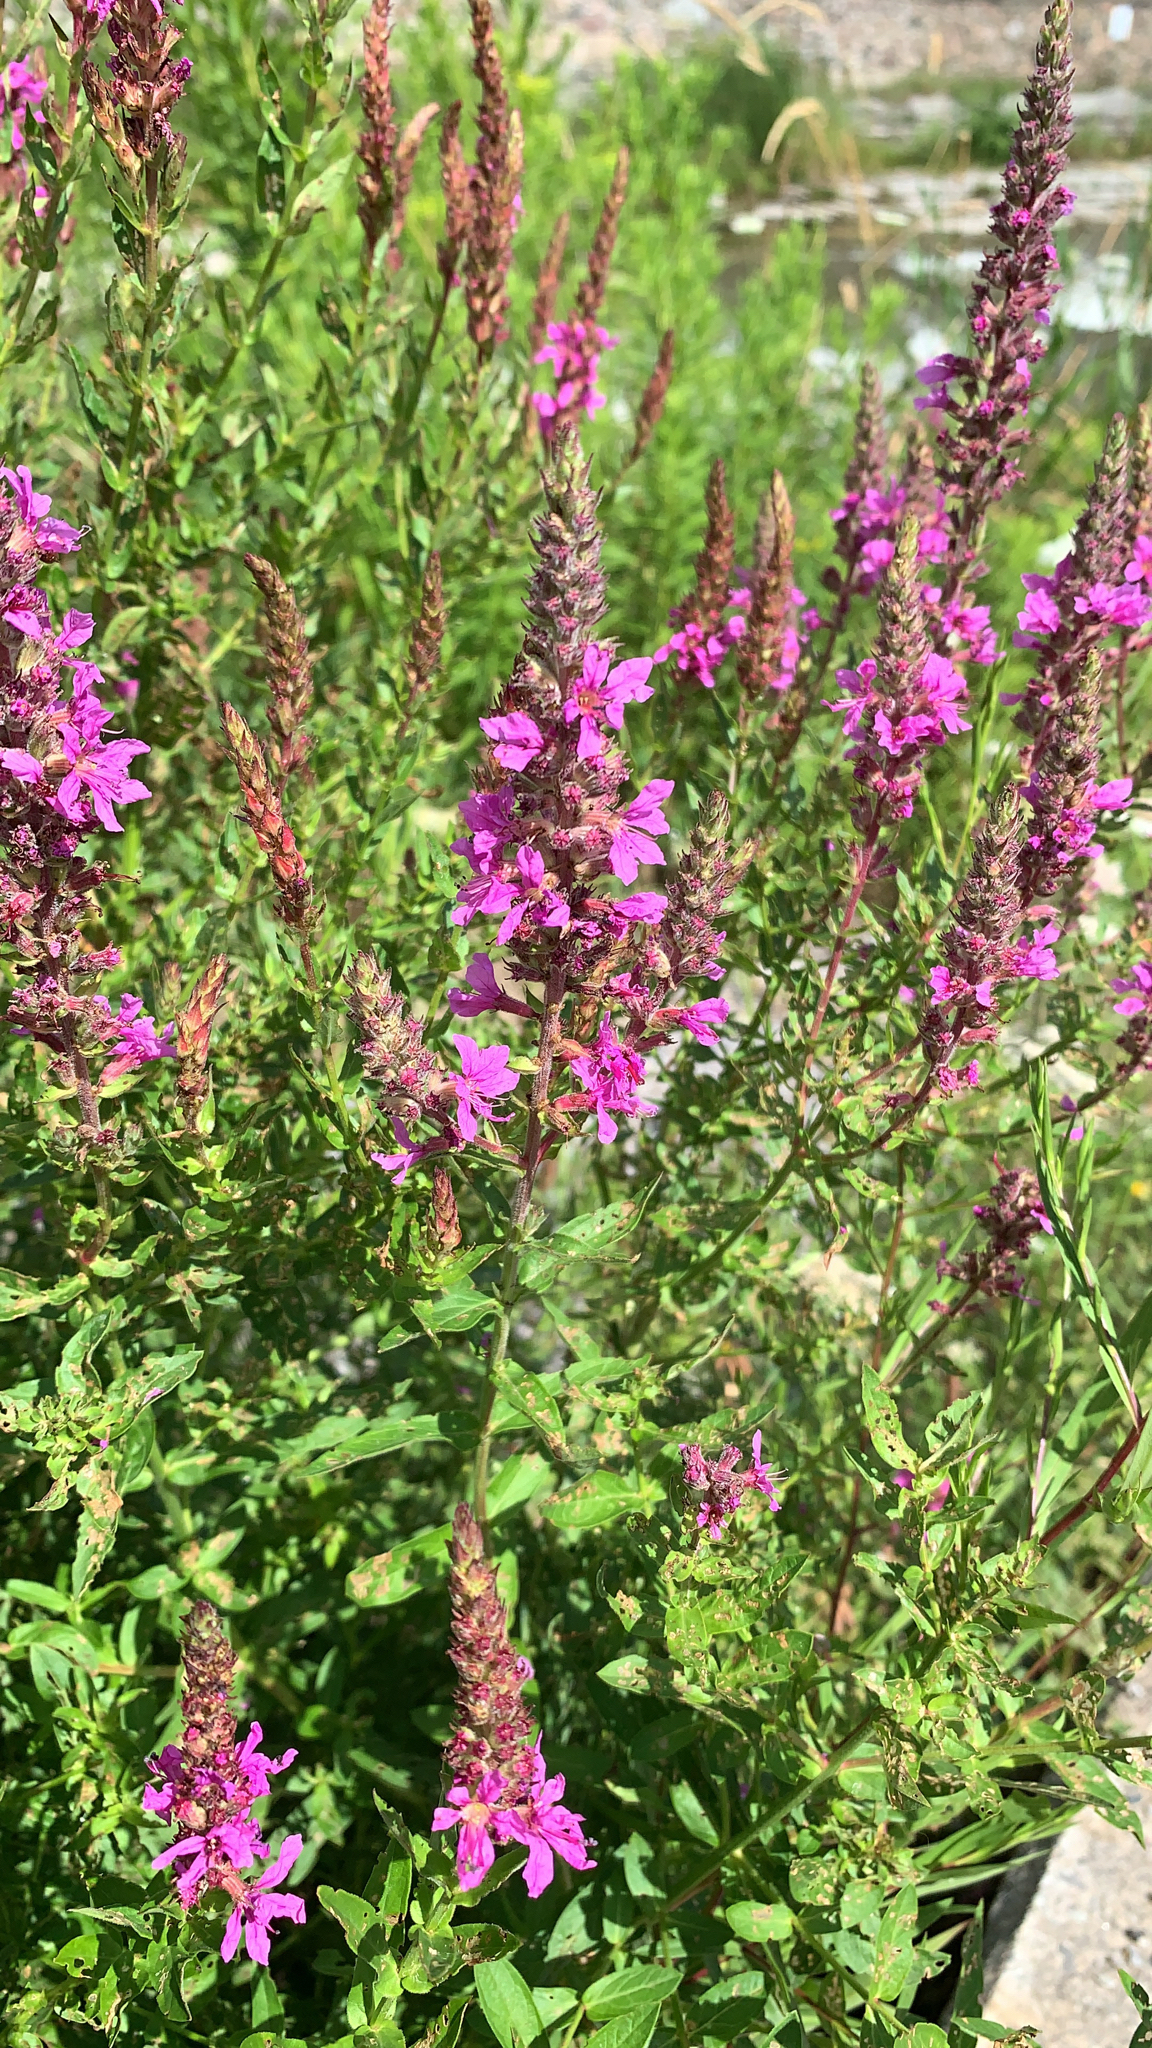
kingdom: Plantae
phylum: Tracheophyta
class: Magnoliopsida
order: Myrtales
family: Lythraceae
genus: Lythrum
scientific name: Lythrum salicaria
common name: Purple loosestrife
